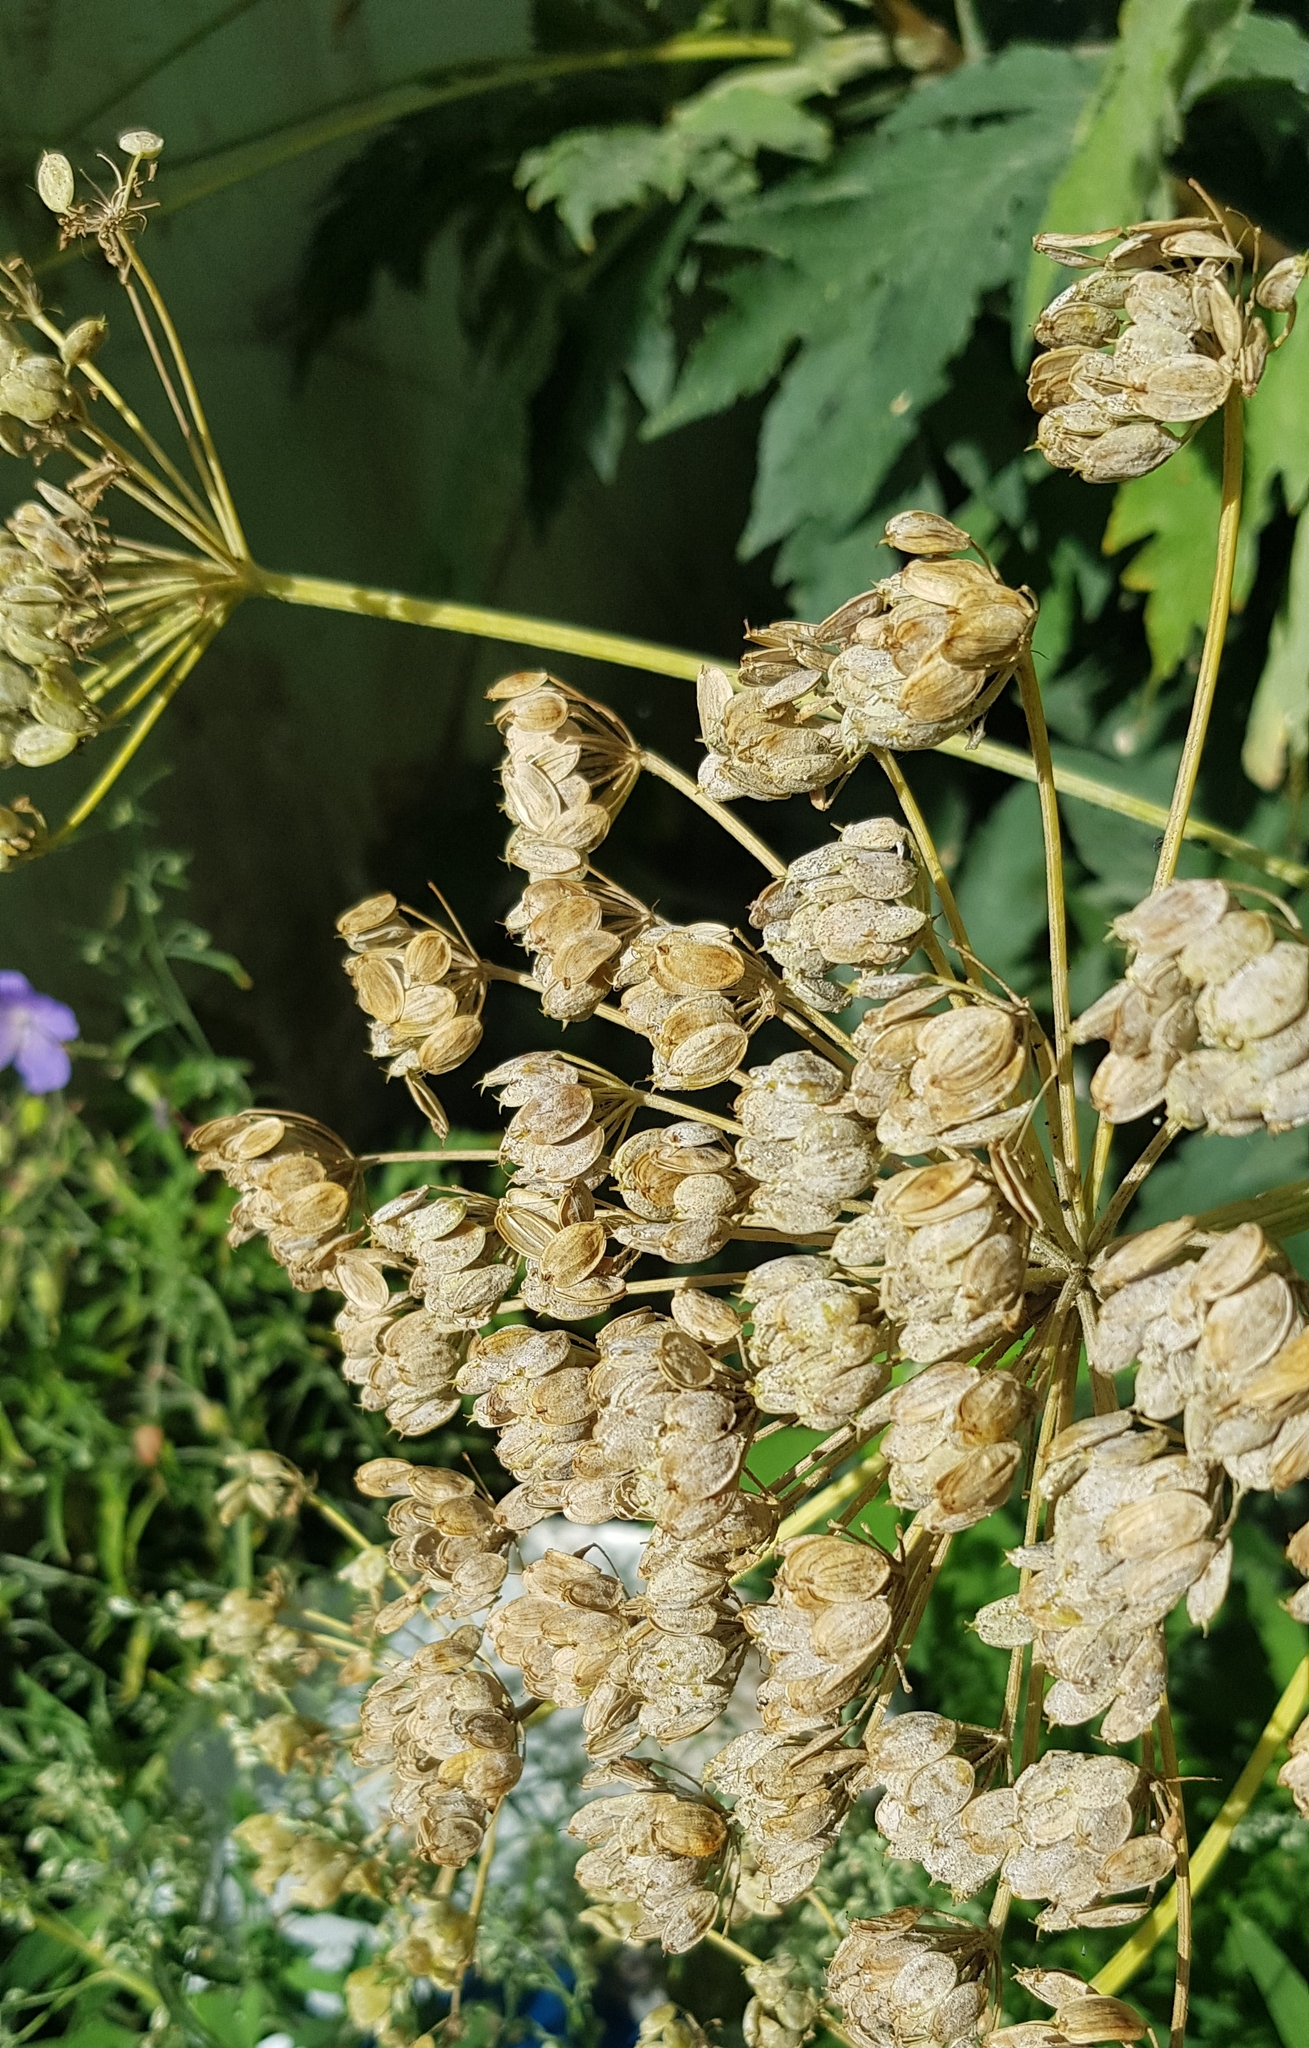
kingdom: Plantae
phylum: Tracheophyta
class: Magnoliopsida
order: Apiales
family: Apiaceae
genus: Heracleum
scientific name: Heracleum dissectum
